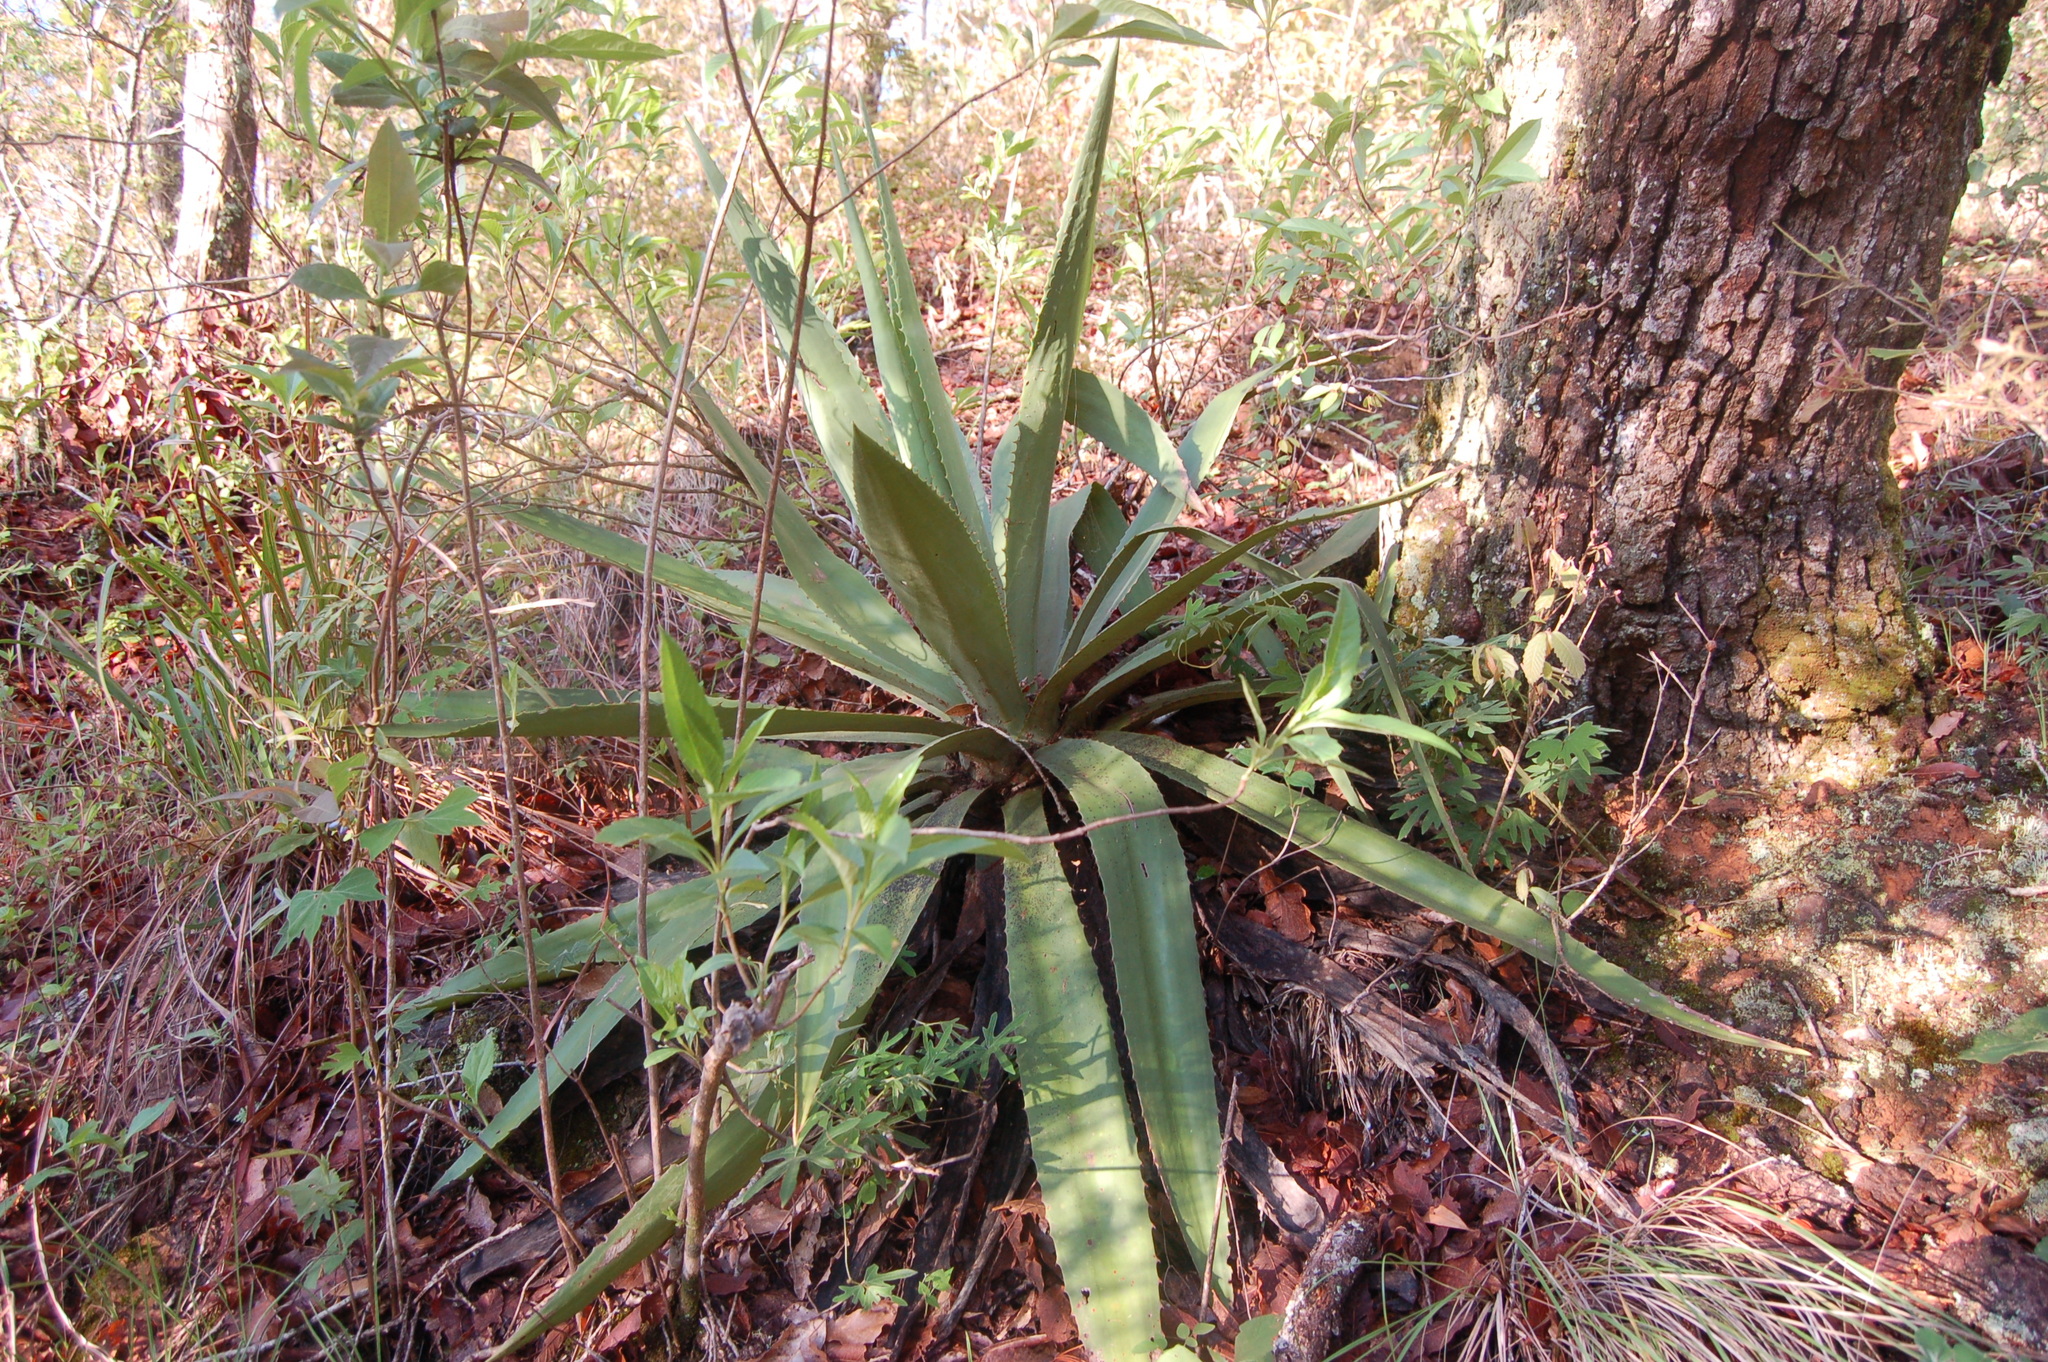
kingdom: Plantae
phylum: Tracheophyta
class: Liliopsida
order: Asparagales
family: Asparagaceae
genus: Furcraea
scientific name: Furcraea guatemalensis
